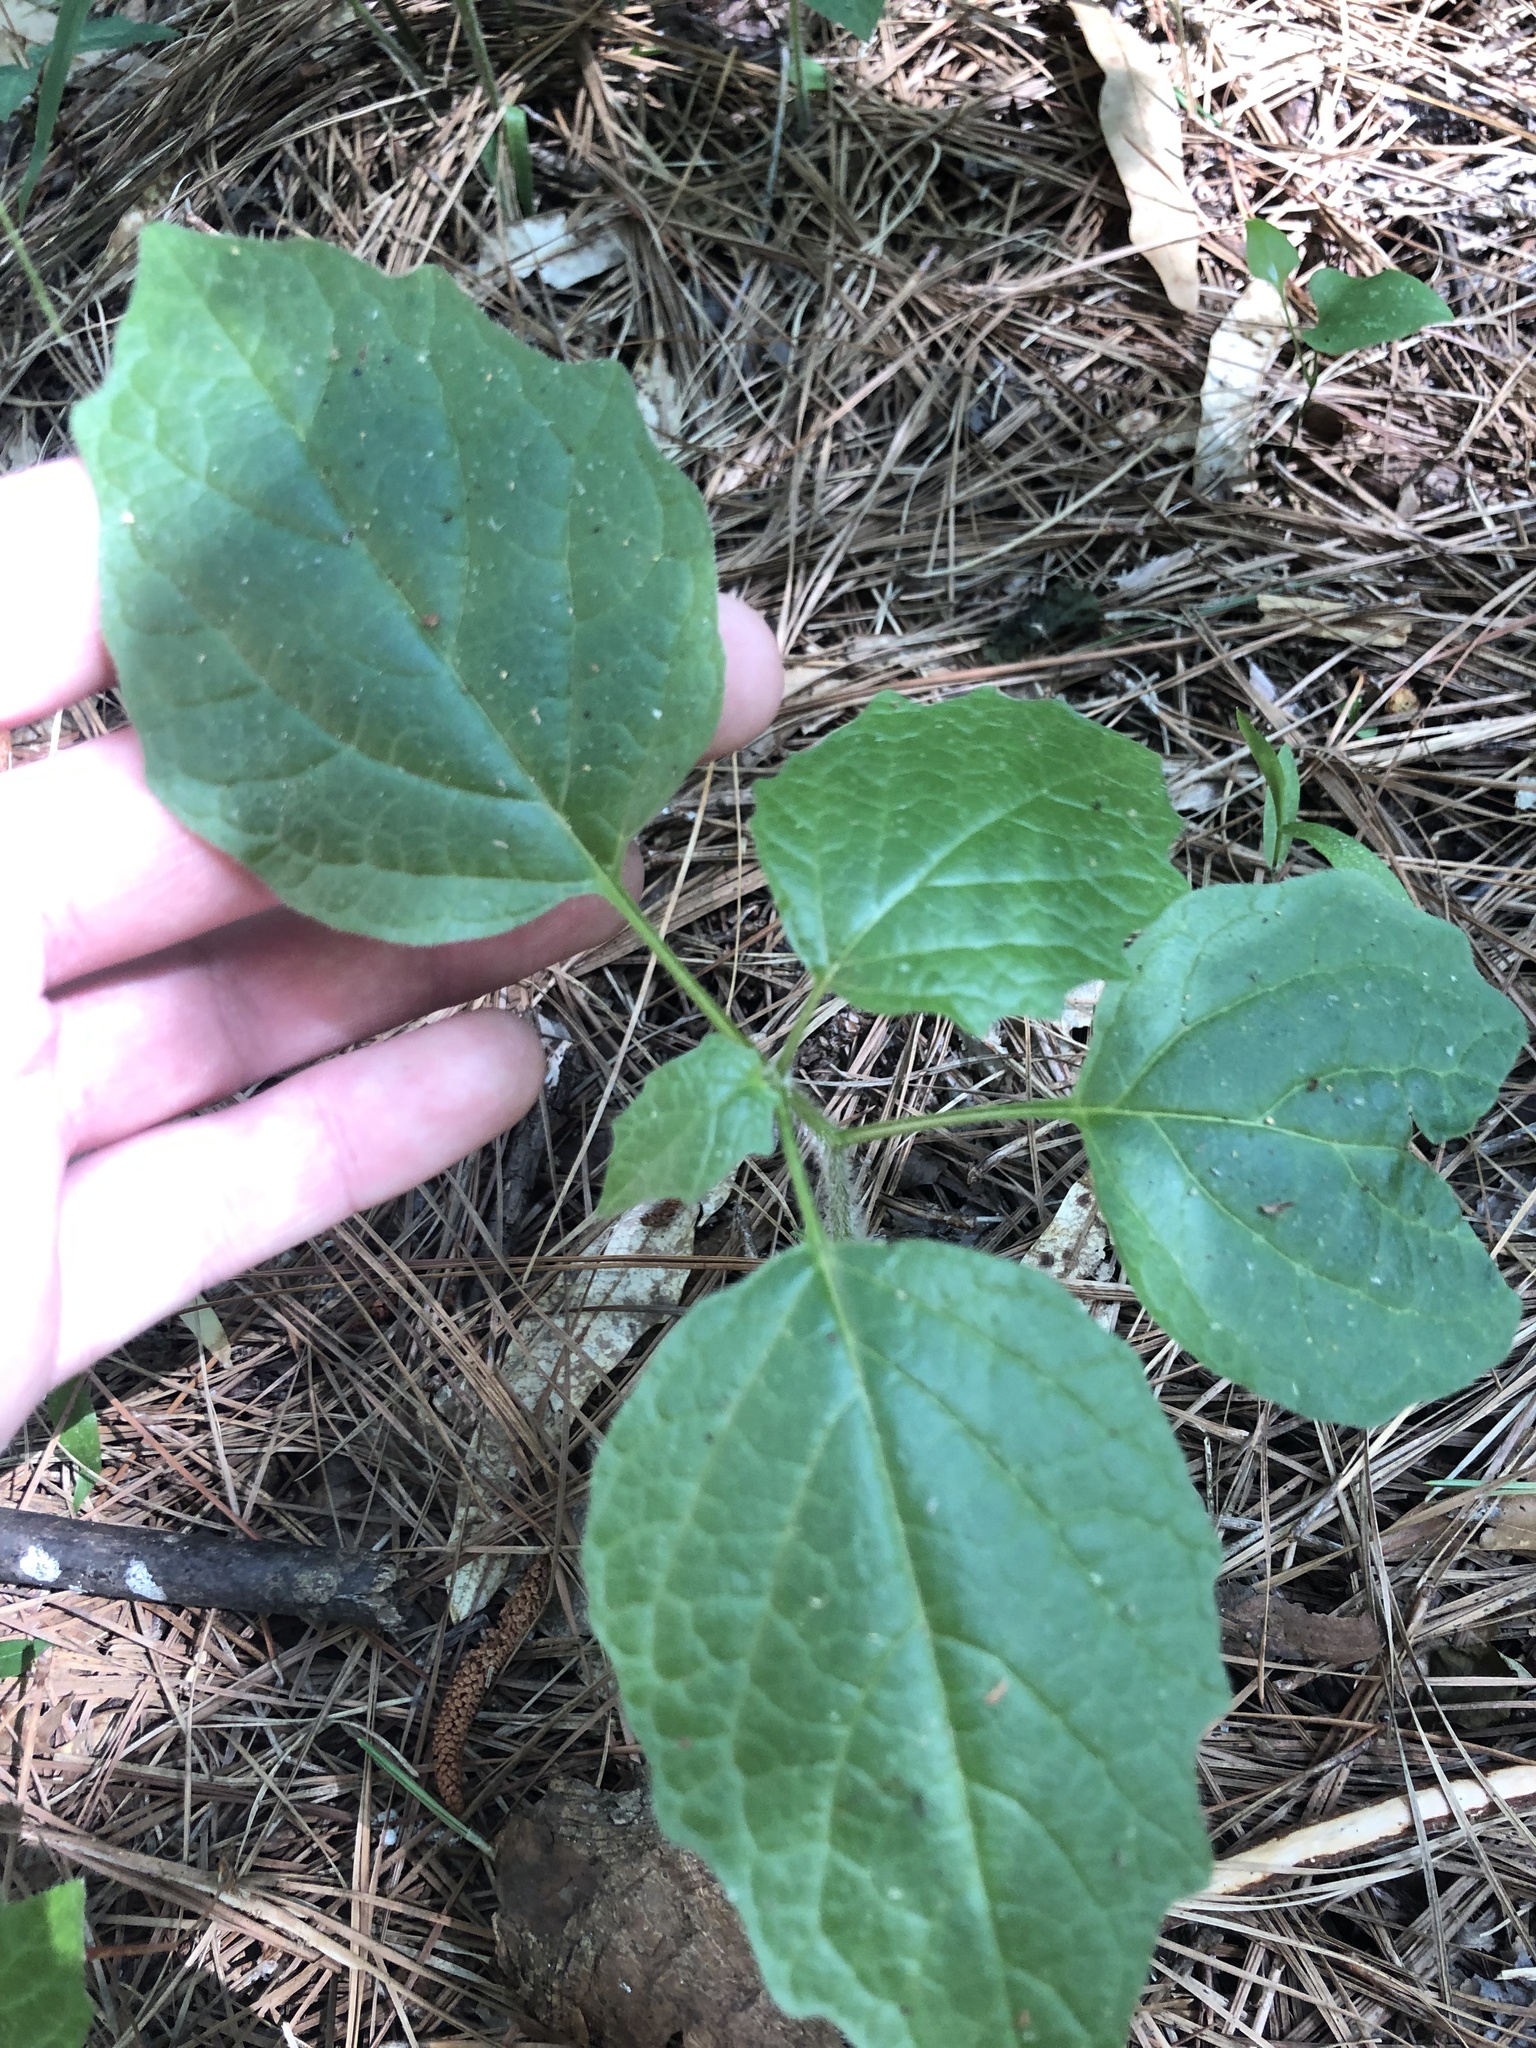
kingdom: Plantae
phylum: Tracheophyta
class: Magnoliopsida
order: Solanales
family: Solanaceae
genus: Physalis
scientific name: Physalis heterophylla
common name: Clammy ground-cherry
